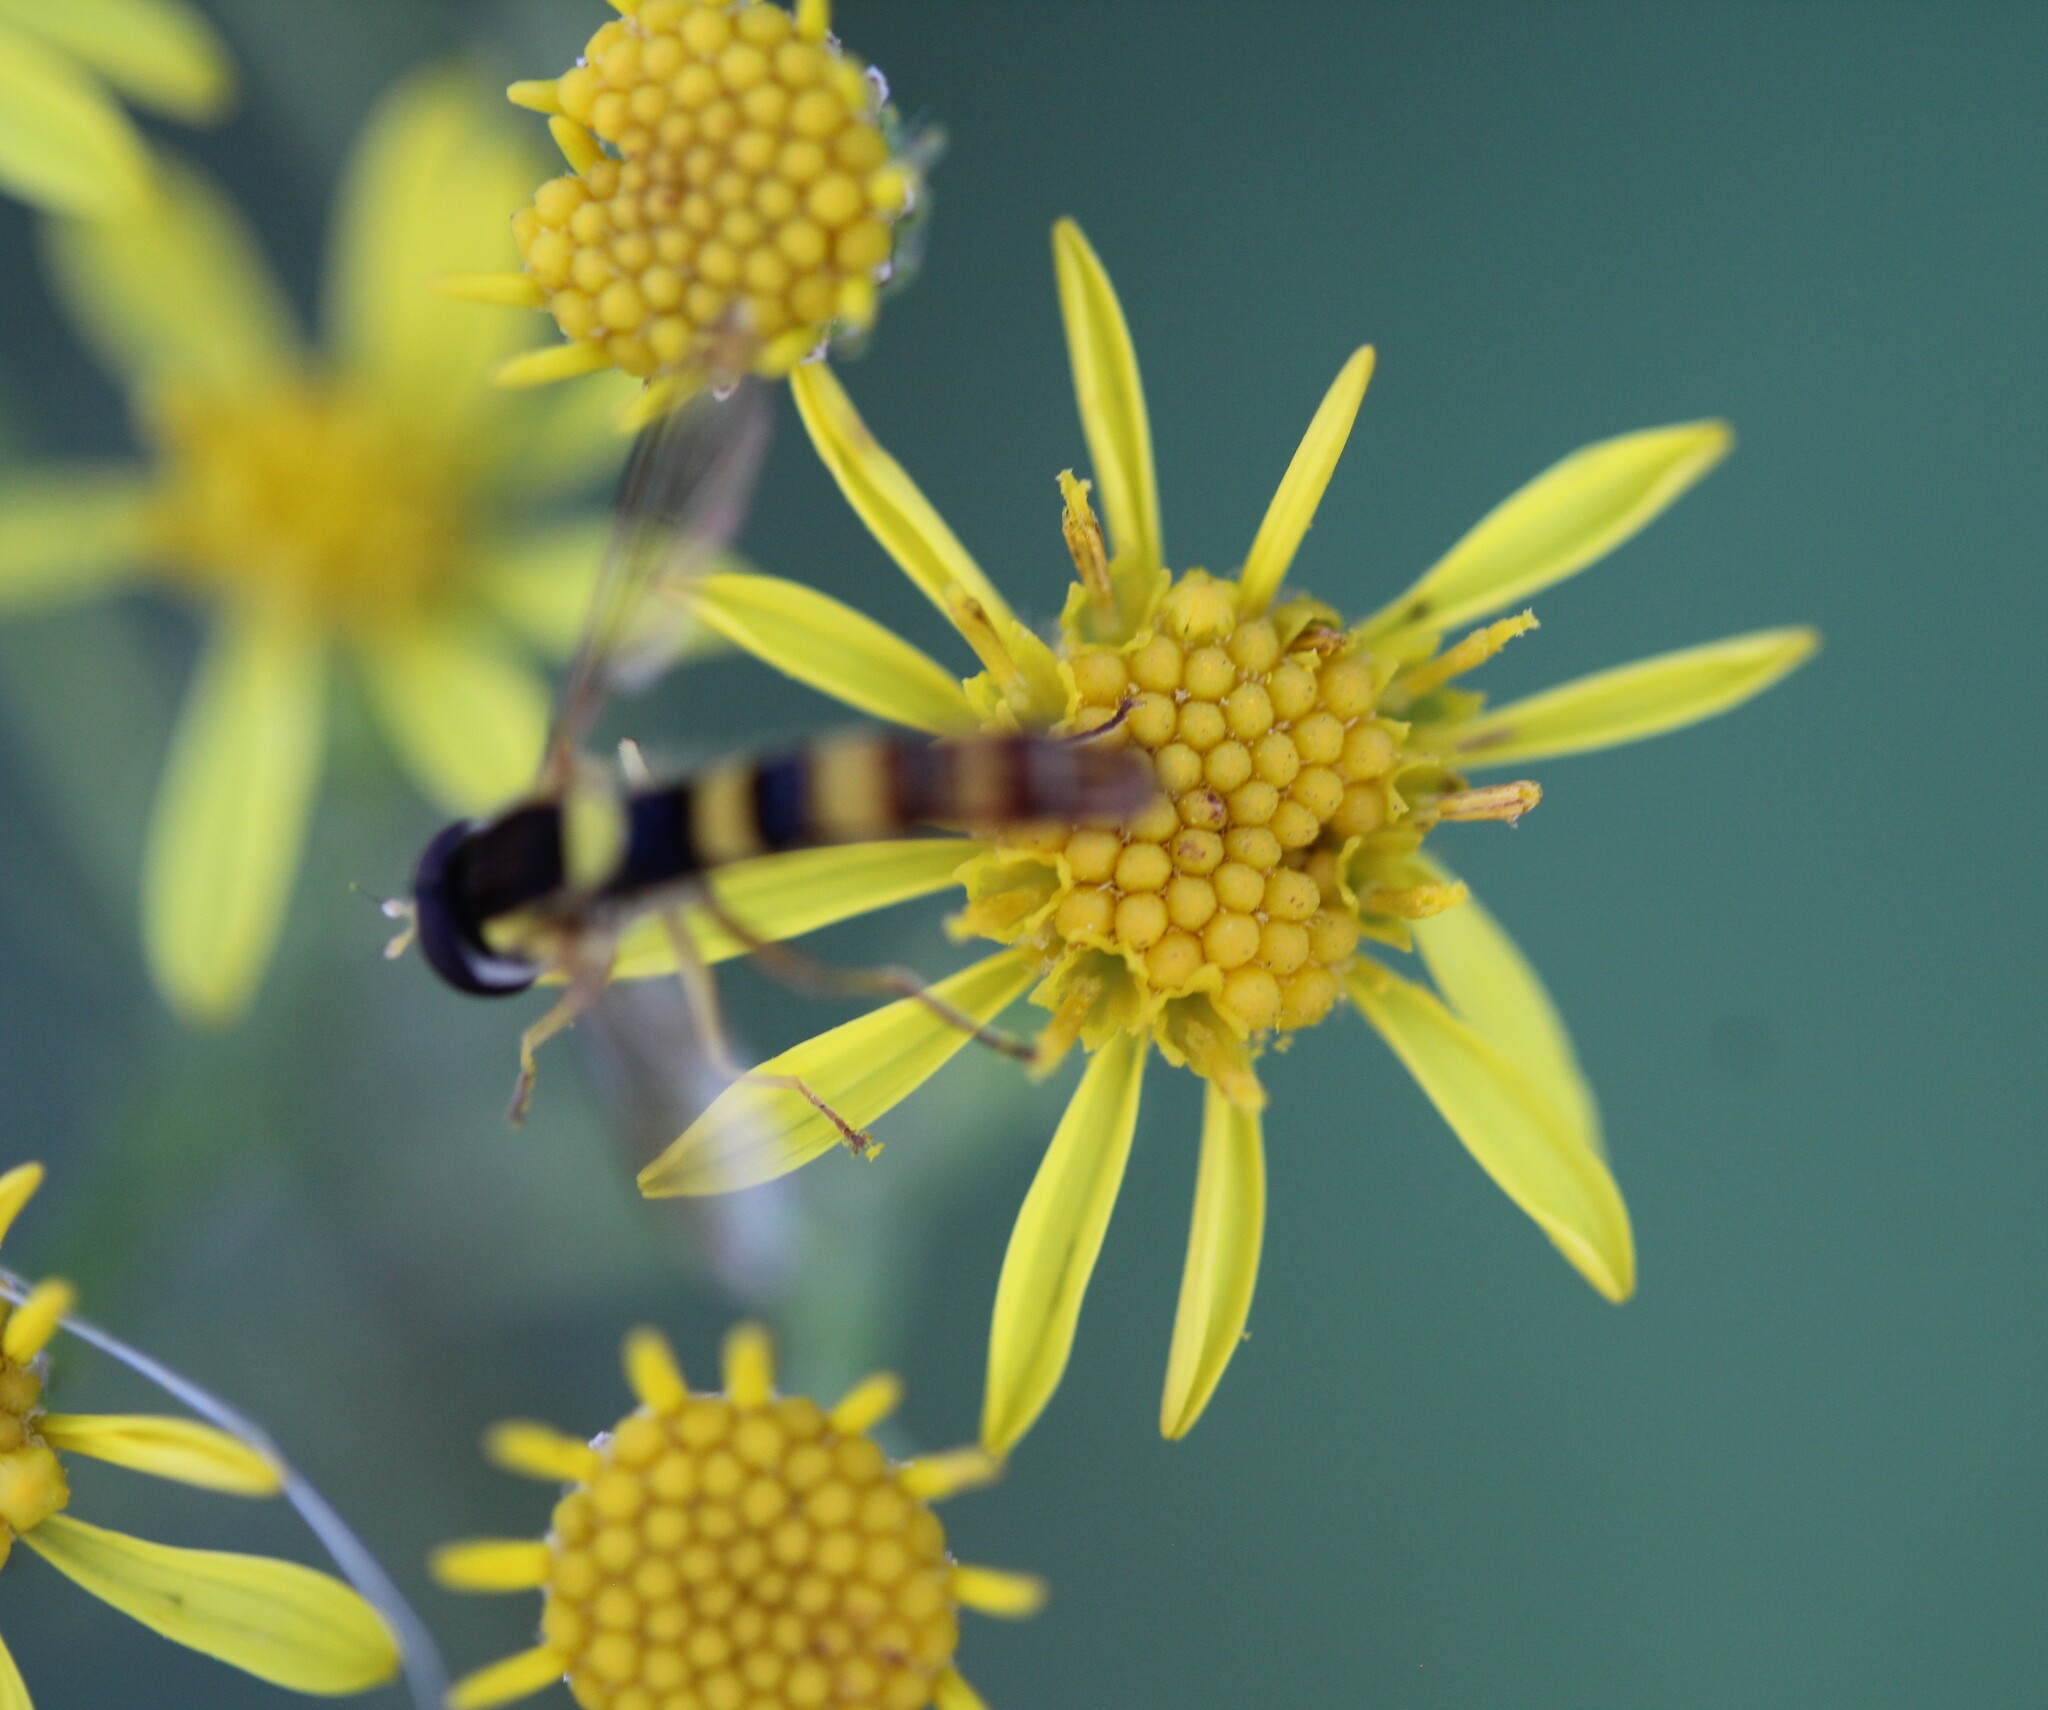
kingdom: Plantae
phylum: Tracheophyta
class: Magnoliopsida
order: Asterales
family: Asteraceae
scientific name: Asteraceae
